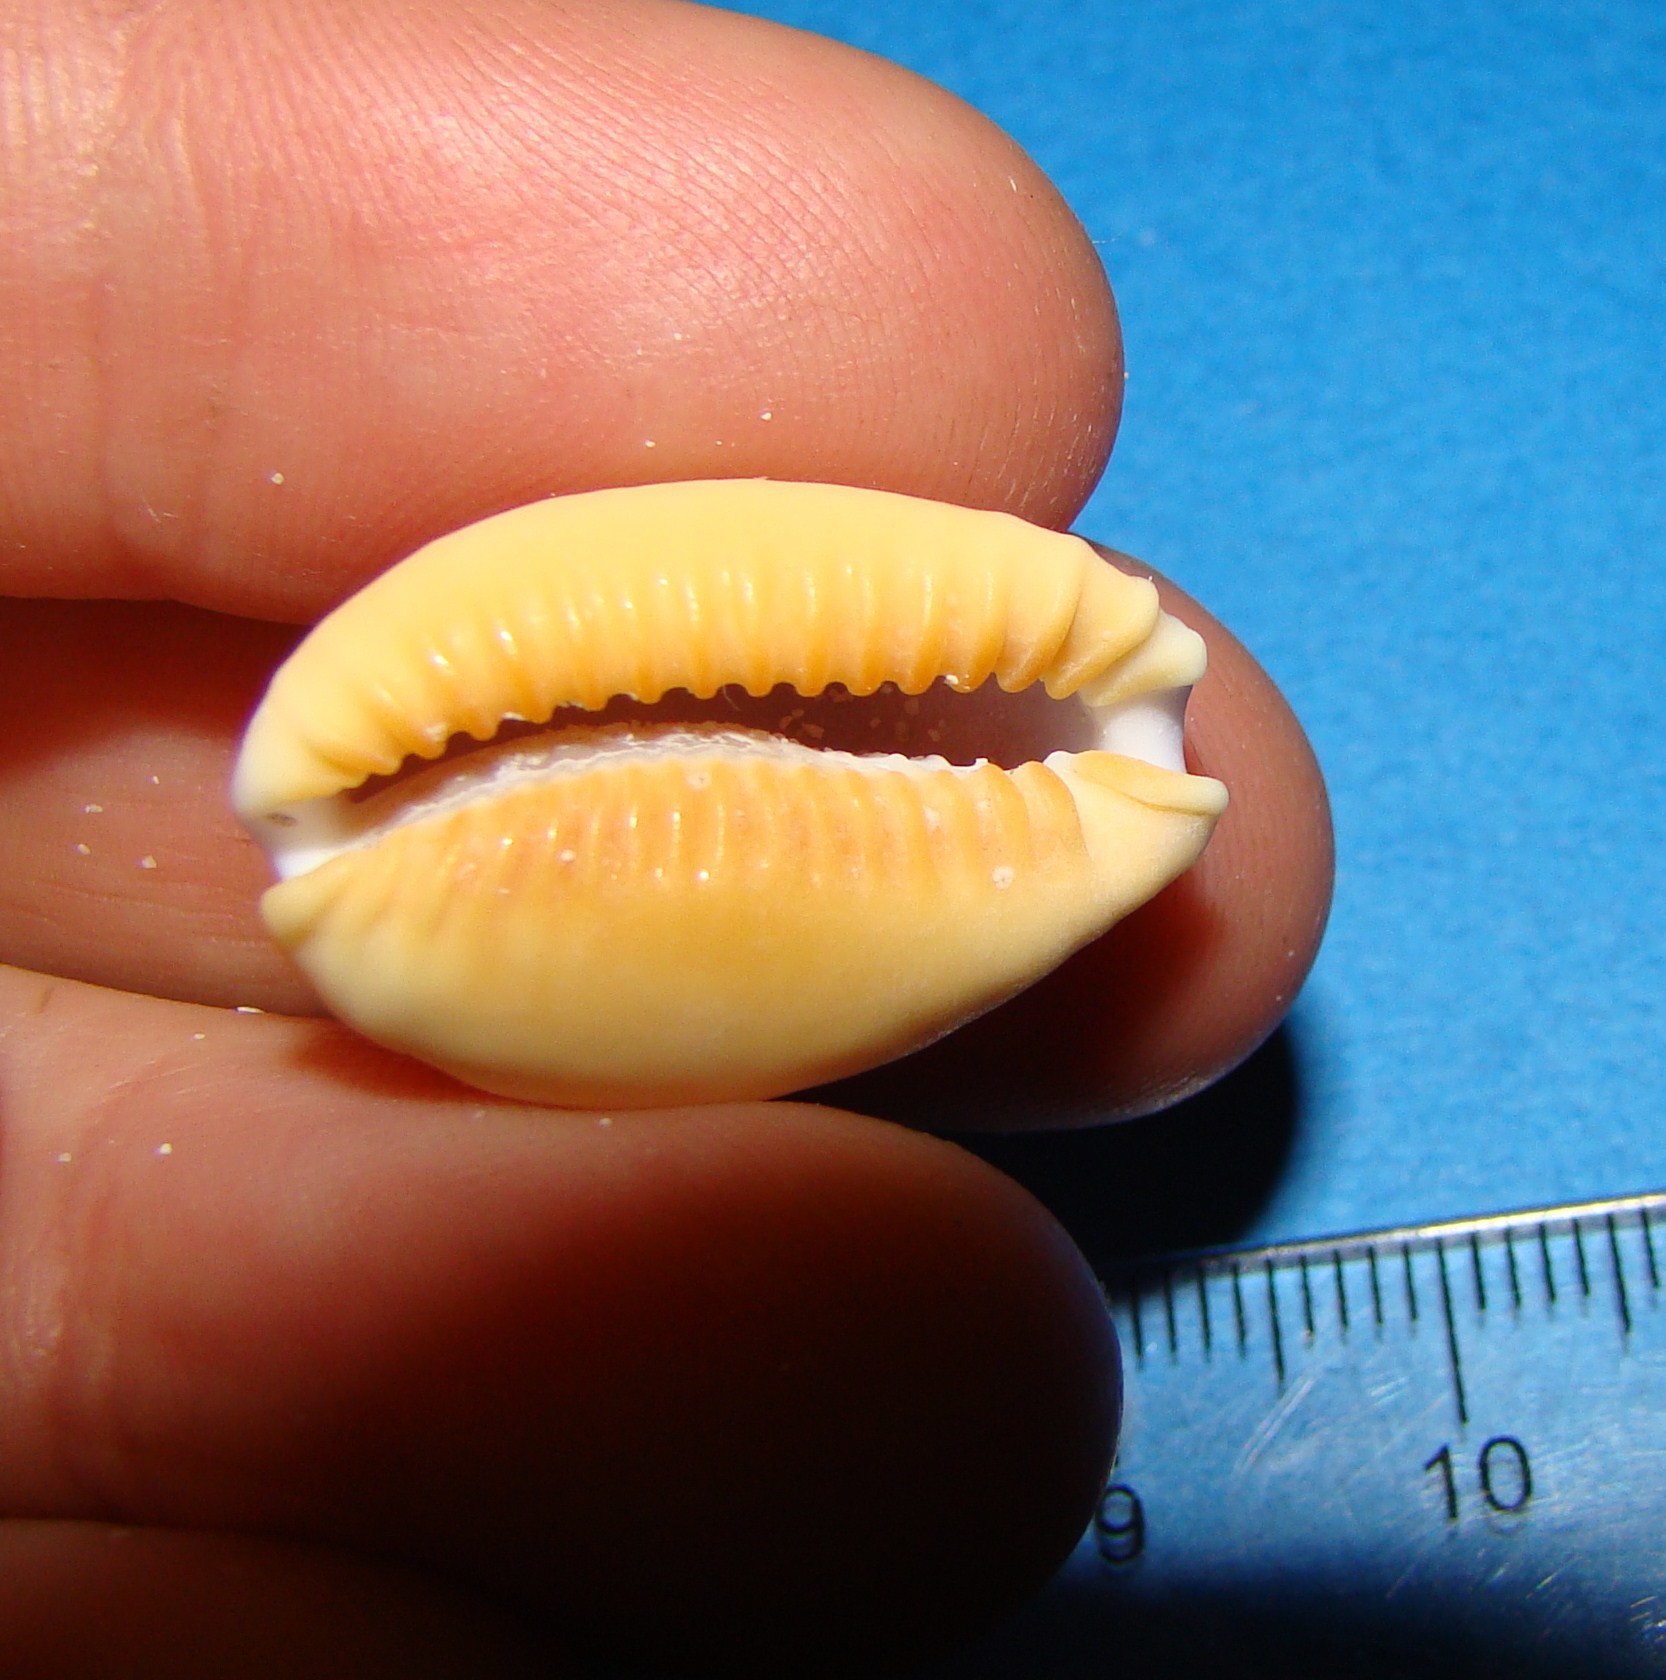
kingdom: Animalia
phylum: Mollusca
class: Gastropoda
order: Littorinimorpha
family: Cypraeidae
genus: Naria
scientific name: Naria helvola
